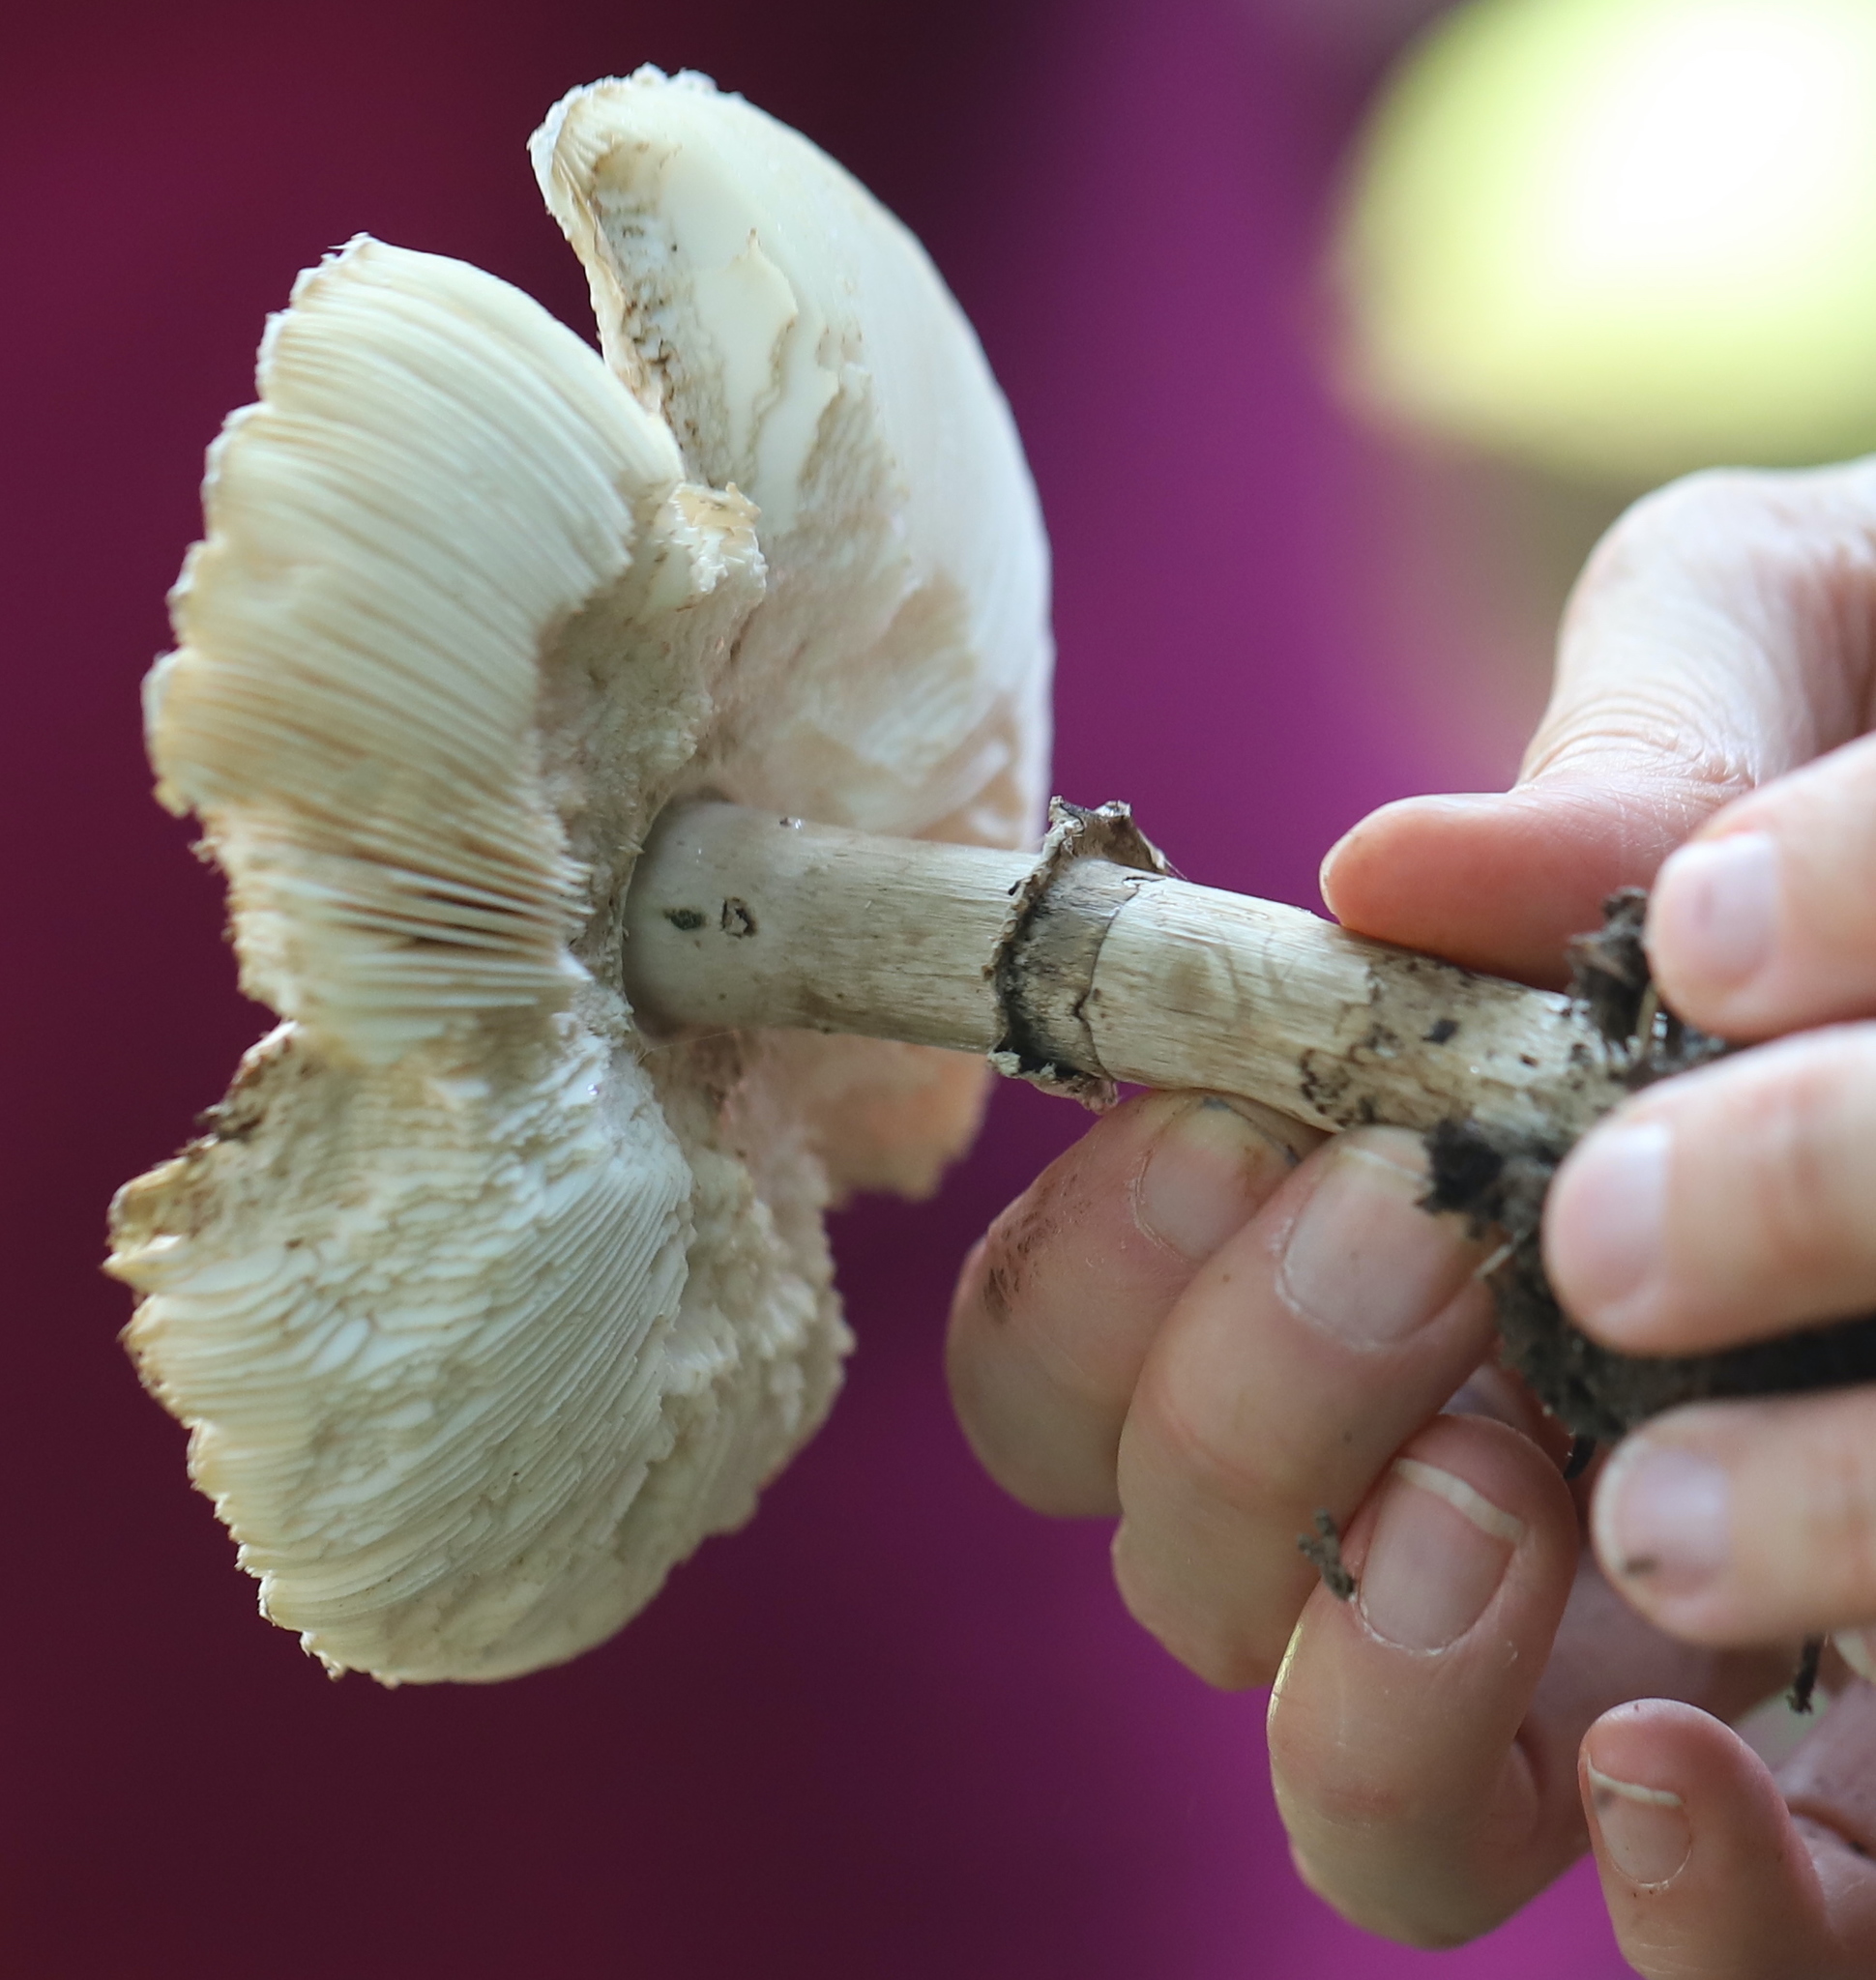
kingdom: Fungi
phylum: Basidiomycota
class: Agaricomycetes
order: Agaricales
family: Amanitaceae
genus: Amanita
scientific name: Amanita rubescens
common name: Blusher
